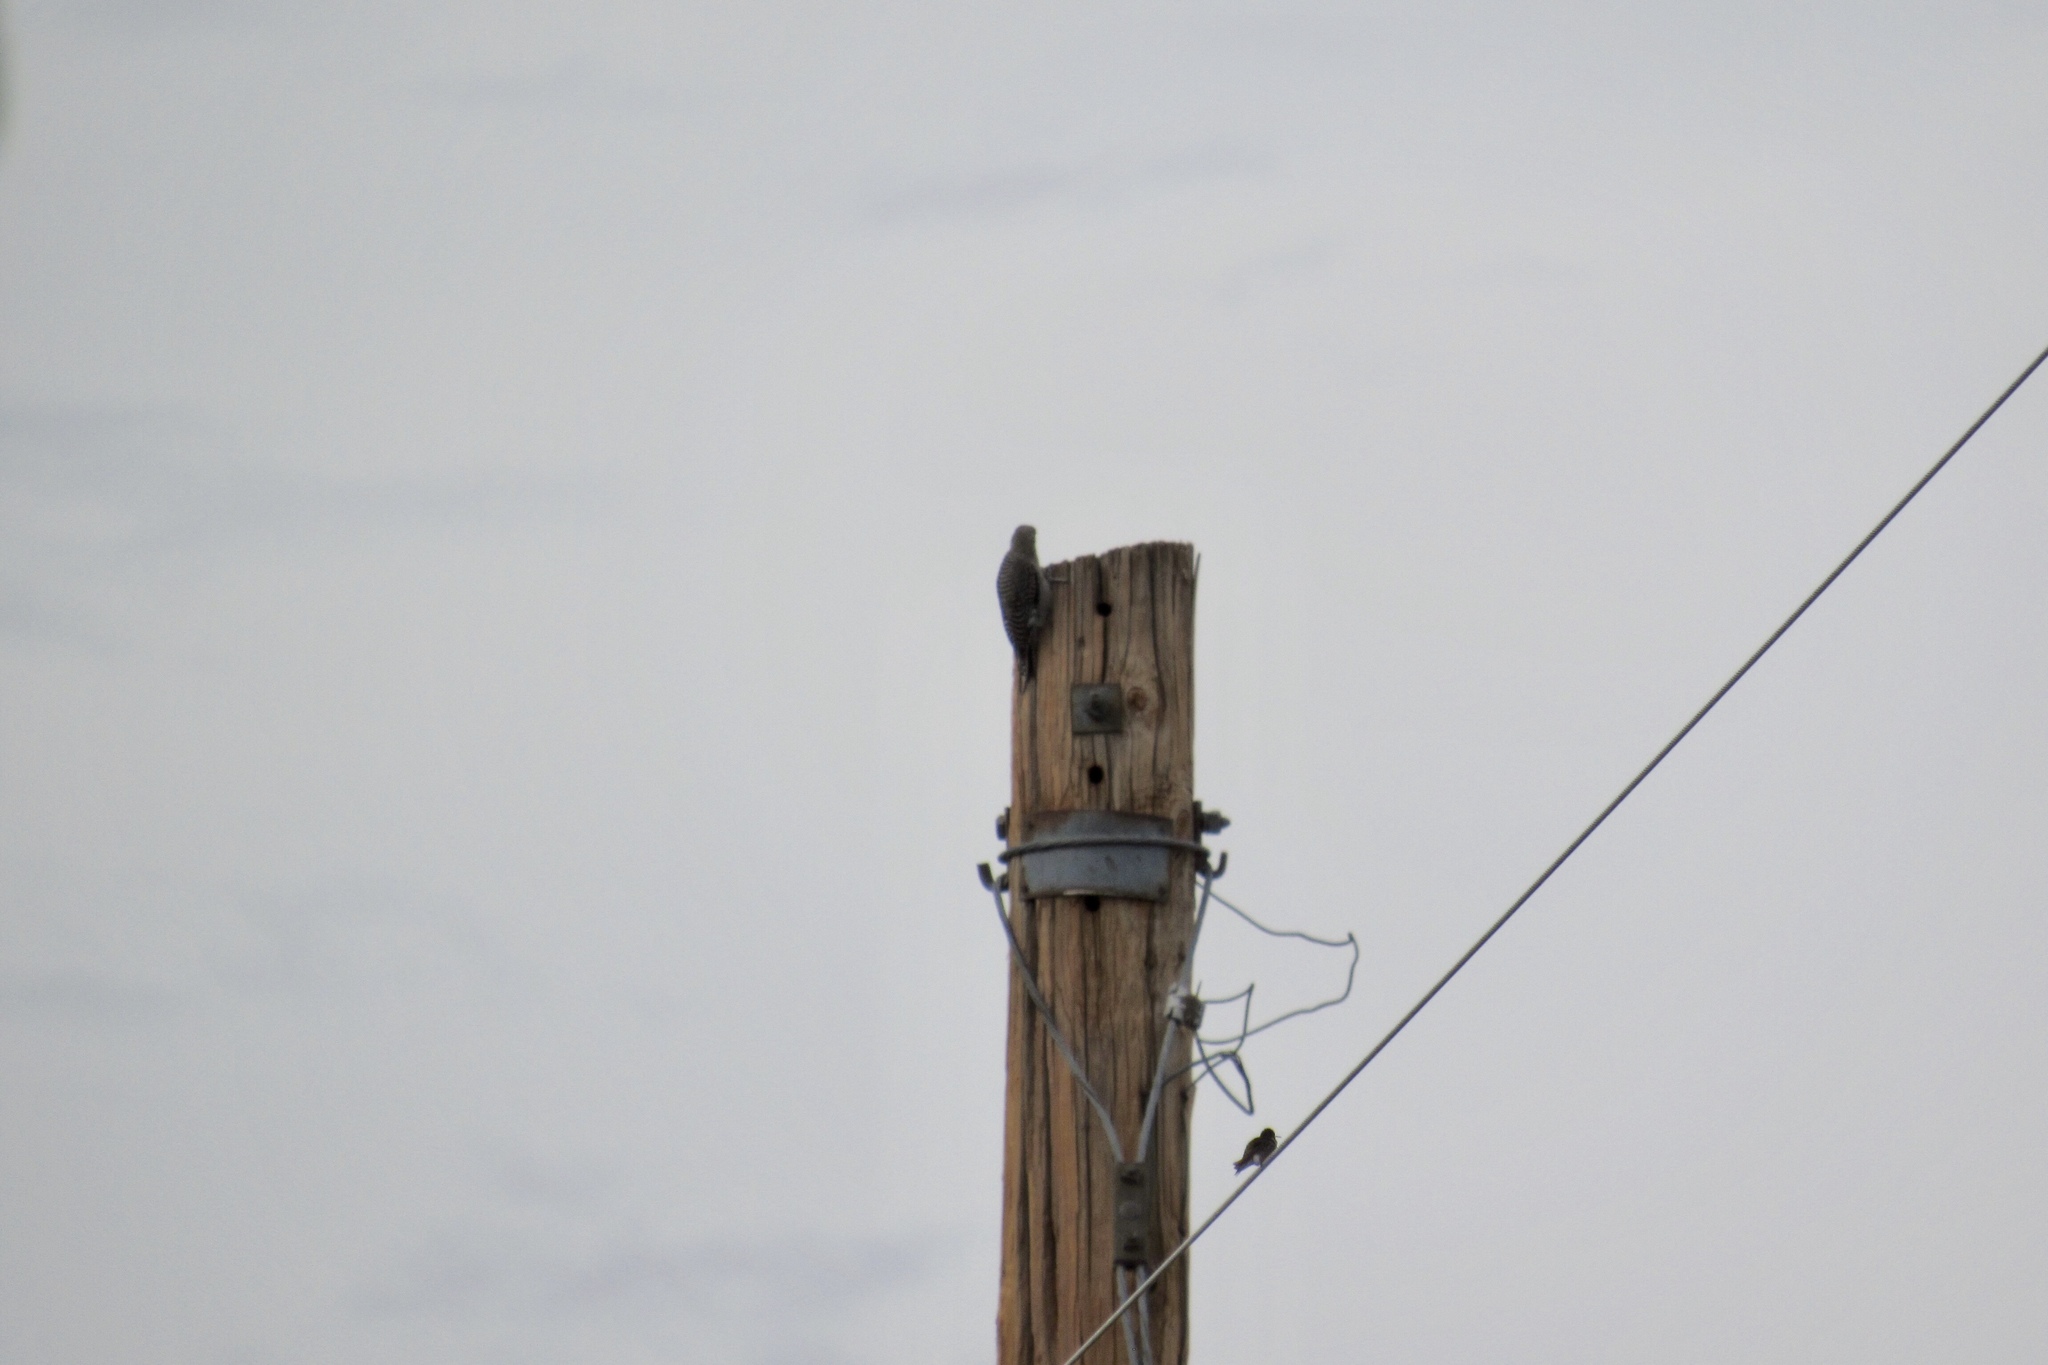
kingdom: Animalia
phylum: Chordata
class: Aves
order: Piciformes
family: Picidae
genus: Melanerpes
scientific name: Melanerpes uropygialis
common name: Gila woodpecker
